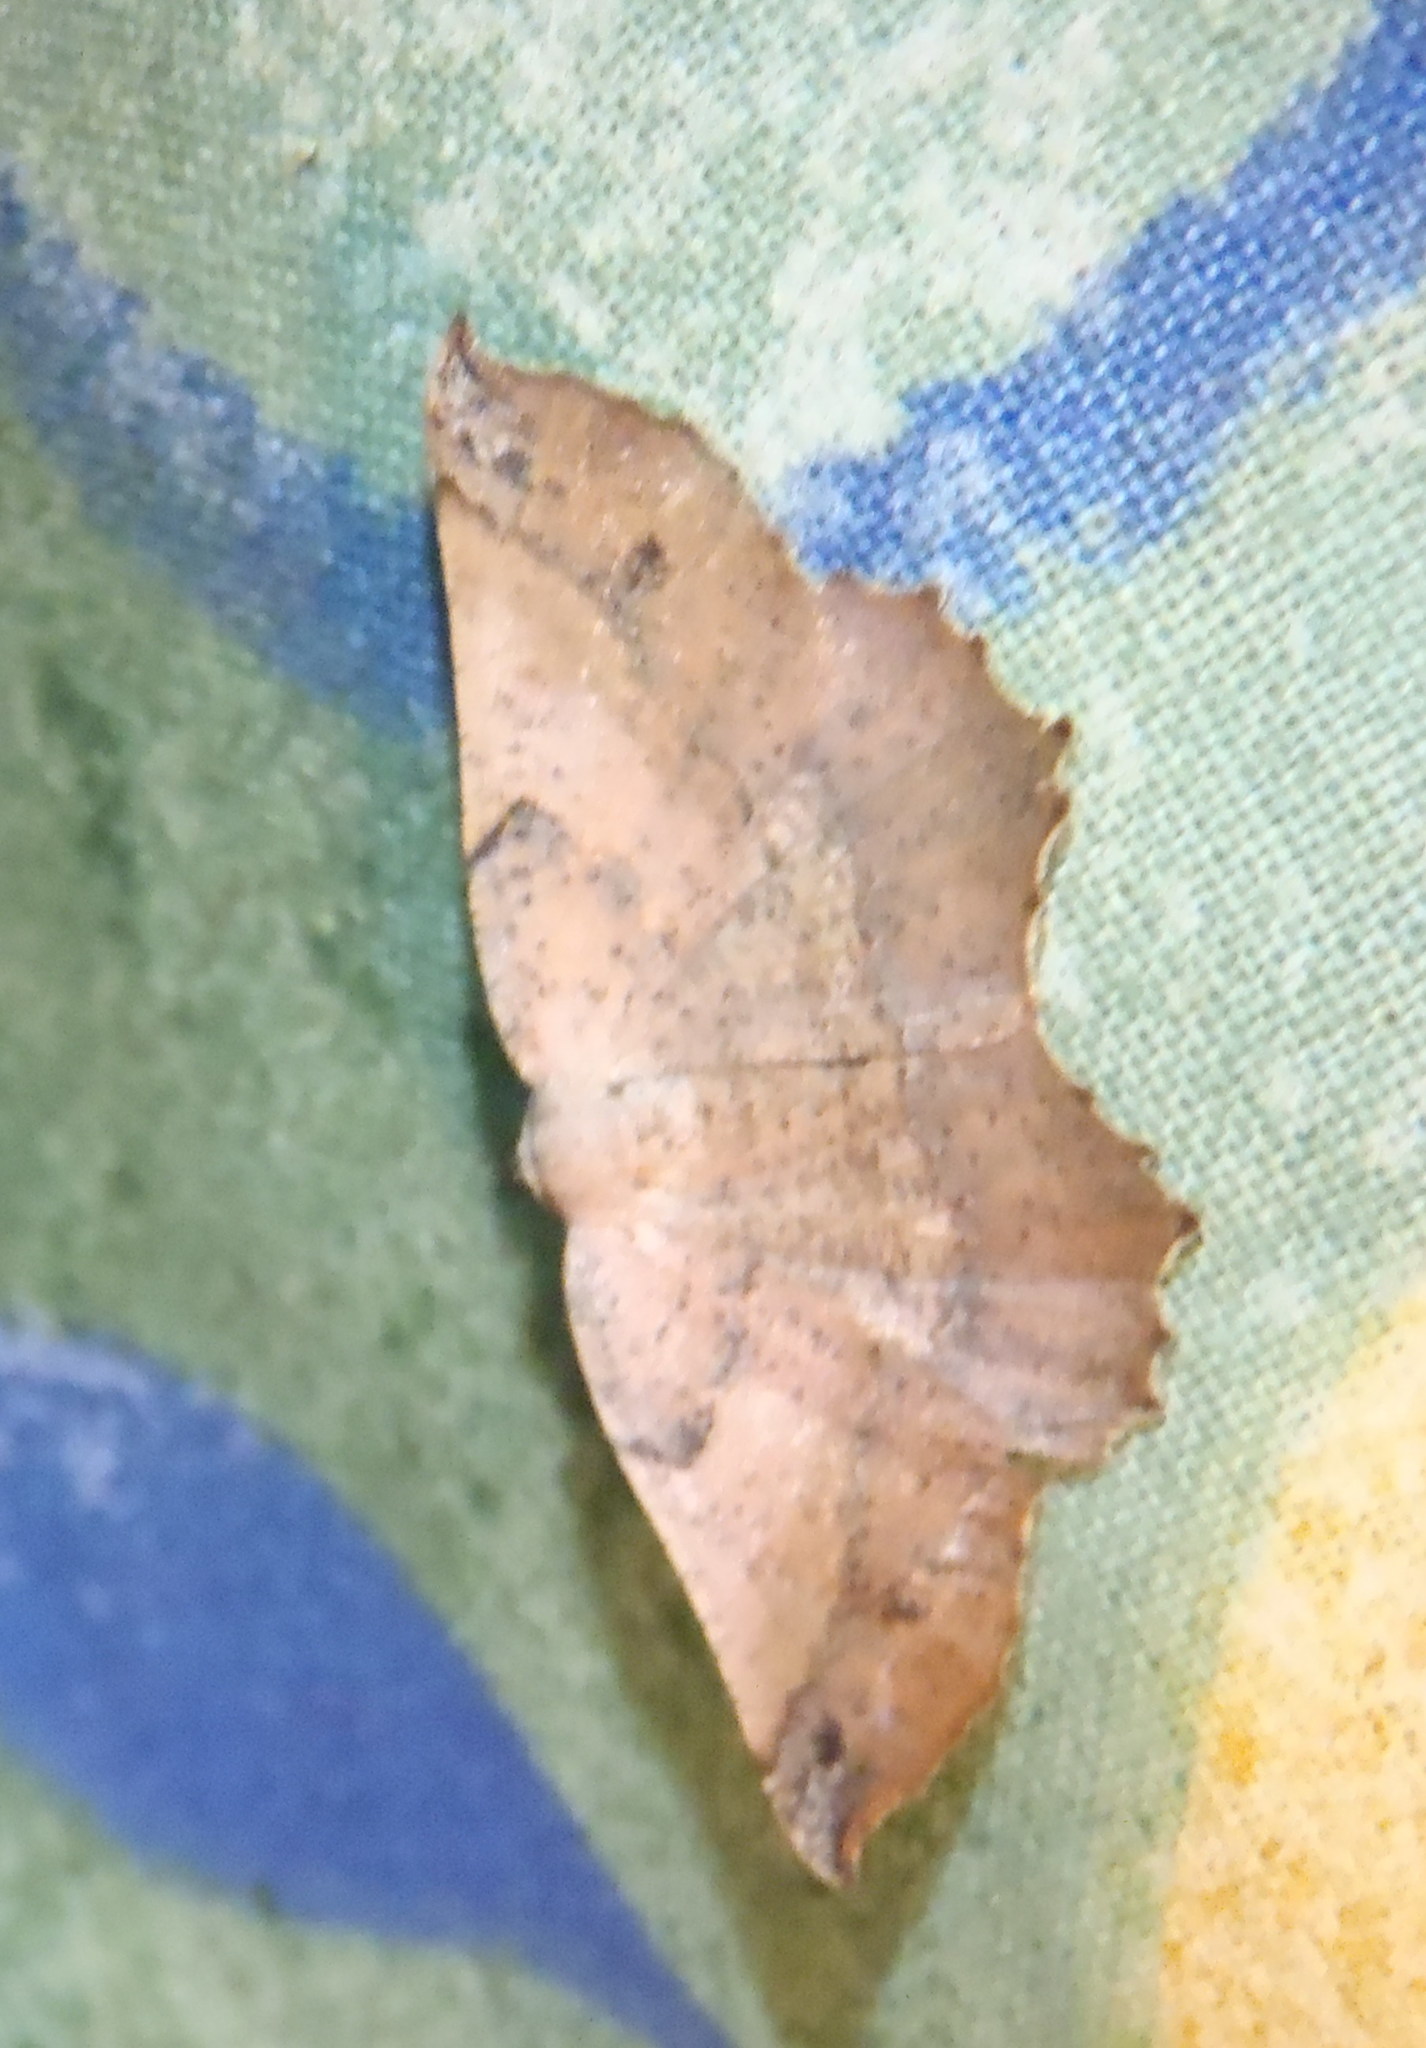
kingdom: Animalia
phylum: Arthropoda
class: Insecta
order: Lepidoptera
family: Geometridae
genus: Drepanogynis
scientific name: Drepanogynis mixtaria
